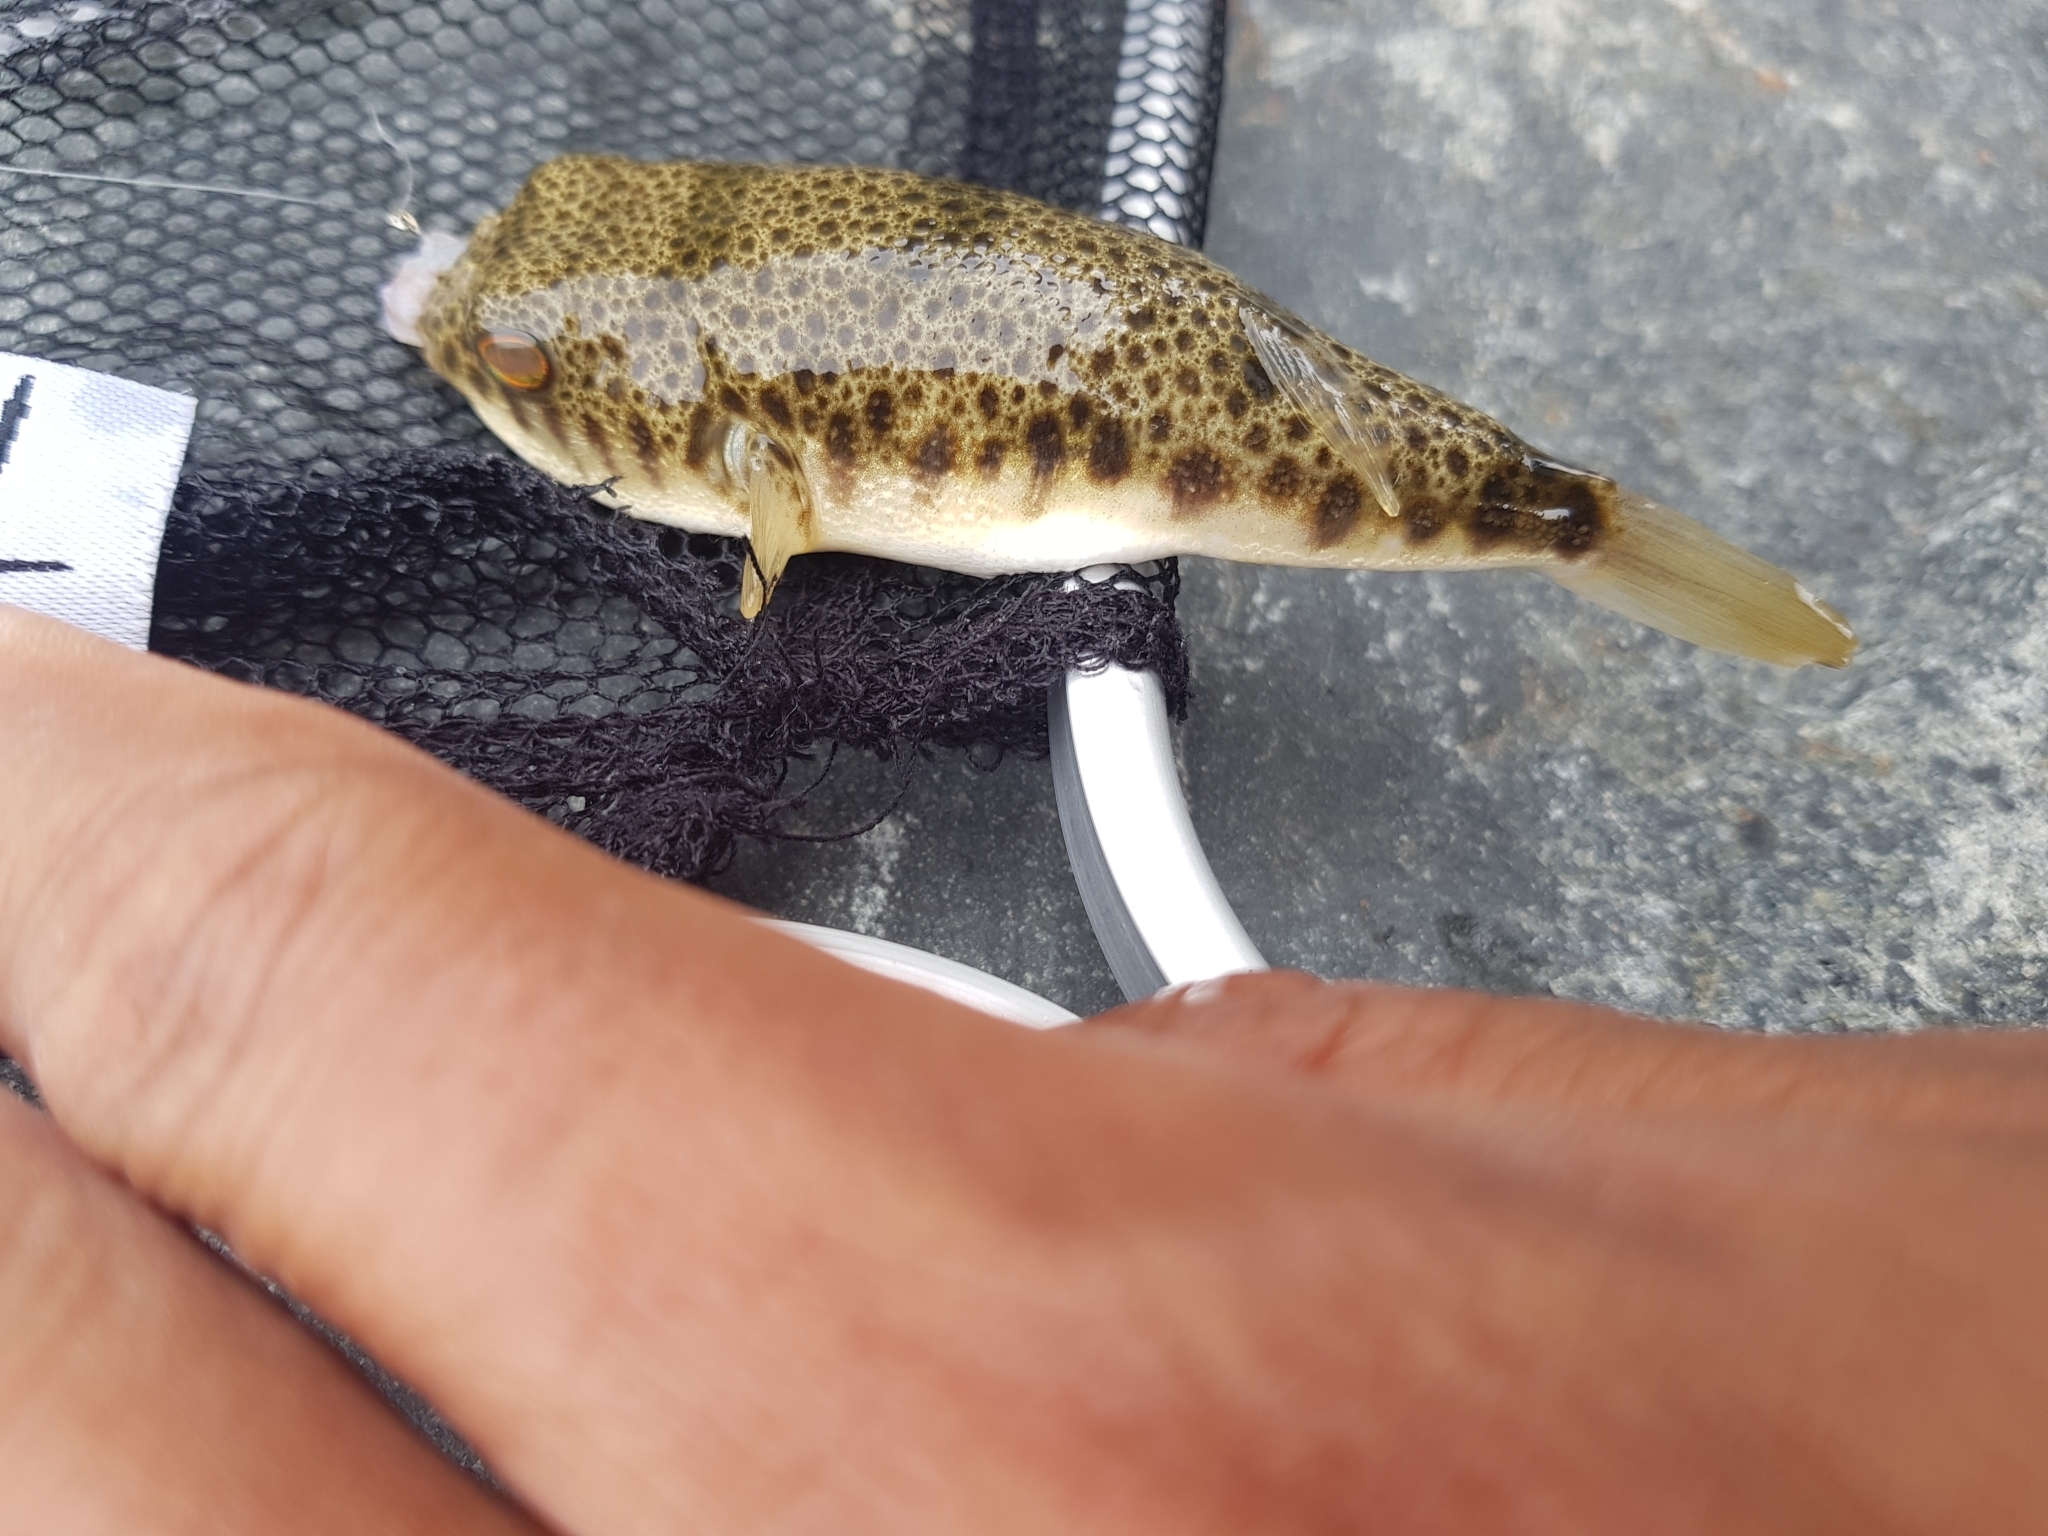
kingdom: Animalia
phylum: Chordata
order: Tetraodontiformes
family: Tetraodontidae
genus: Tetractenos
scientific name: Tetractenos hamiltoni
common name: Common toadfish
